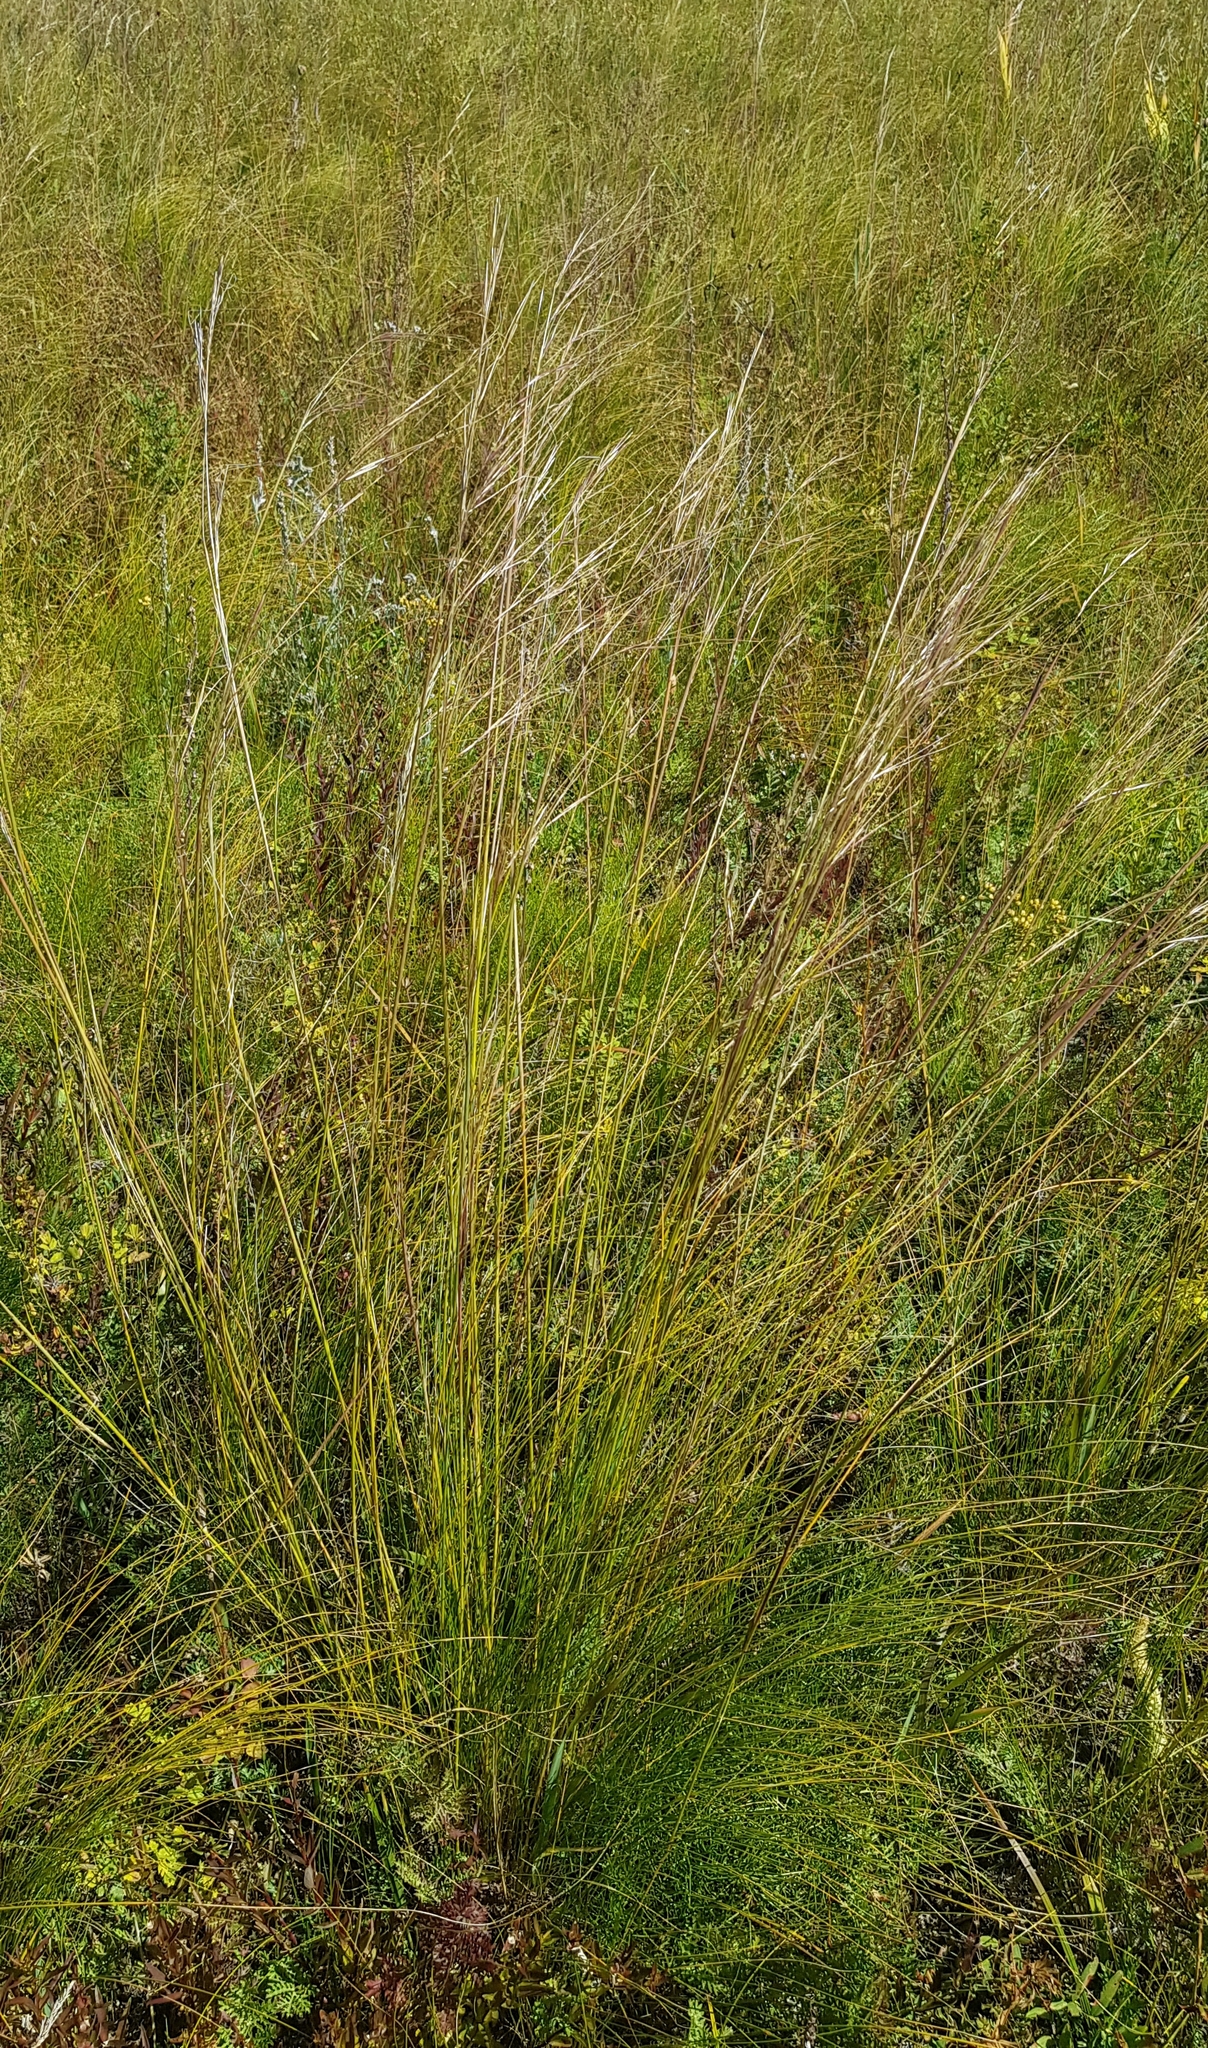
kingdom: Plantae
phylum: Tracheophyta
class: Liliopsida
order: Poales
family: Poaceae
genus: Stipa
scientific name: Stipa grandis
